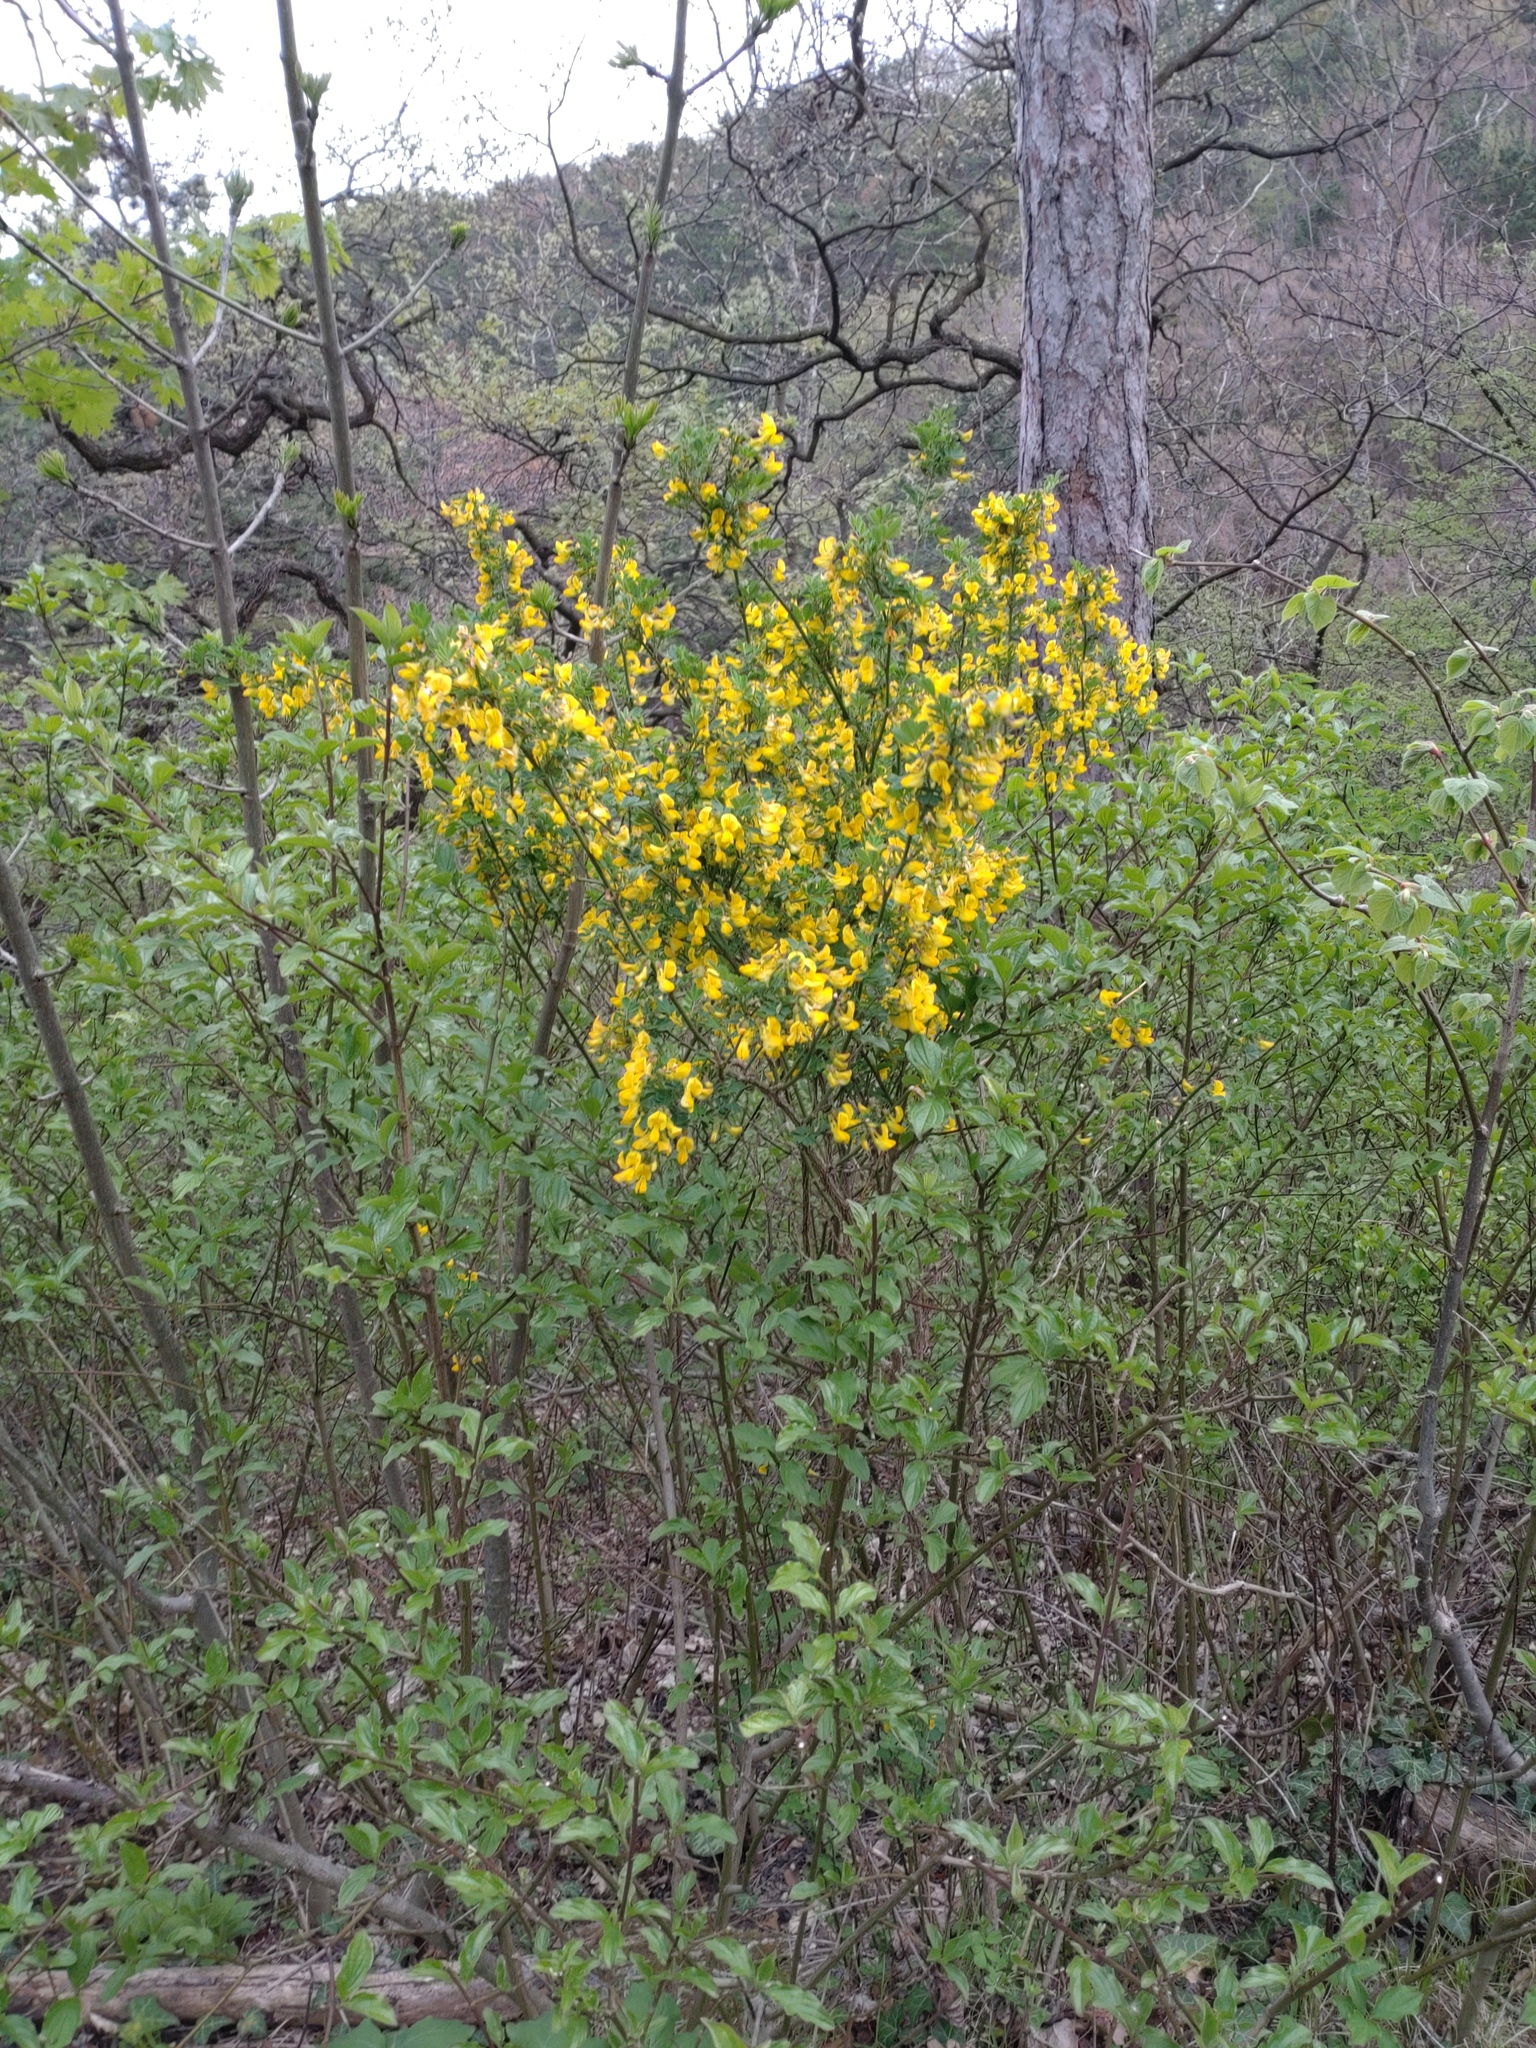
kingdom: Plantae
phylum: Tracheophyta
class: Magnoliopsida
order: Fabales
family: Fabaceae
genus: Hippocrepis
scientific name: Hippocrepis emerus
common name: Scorpion senna
